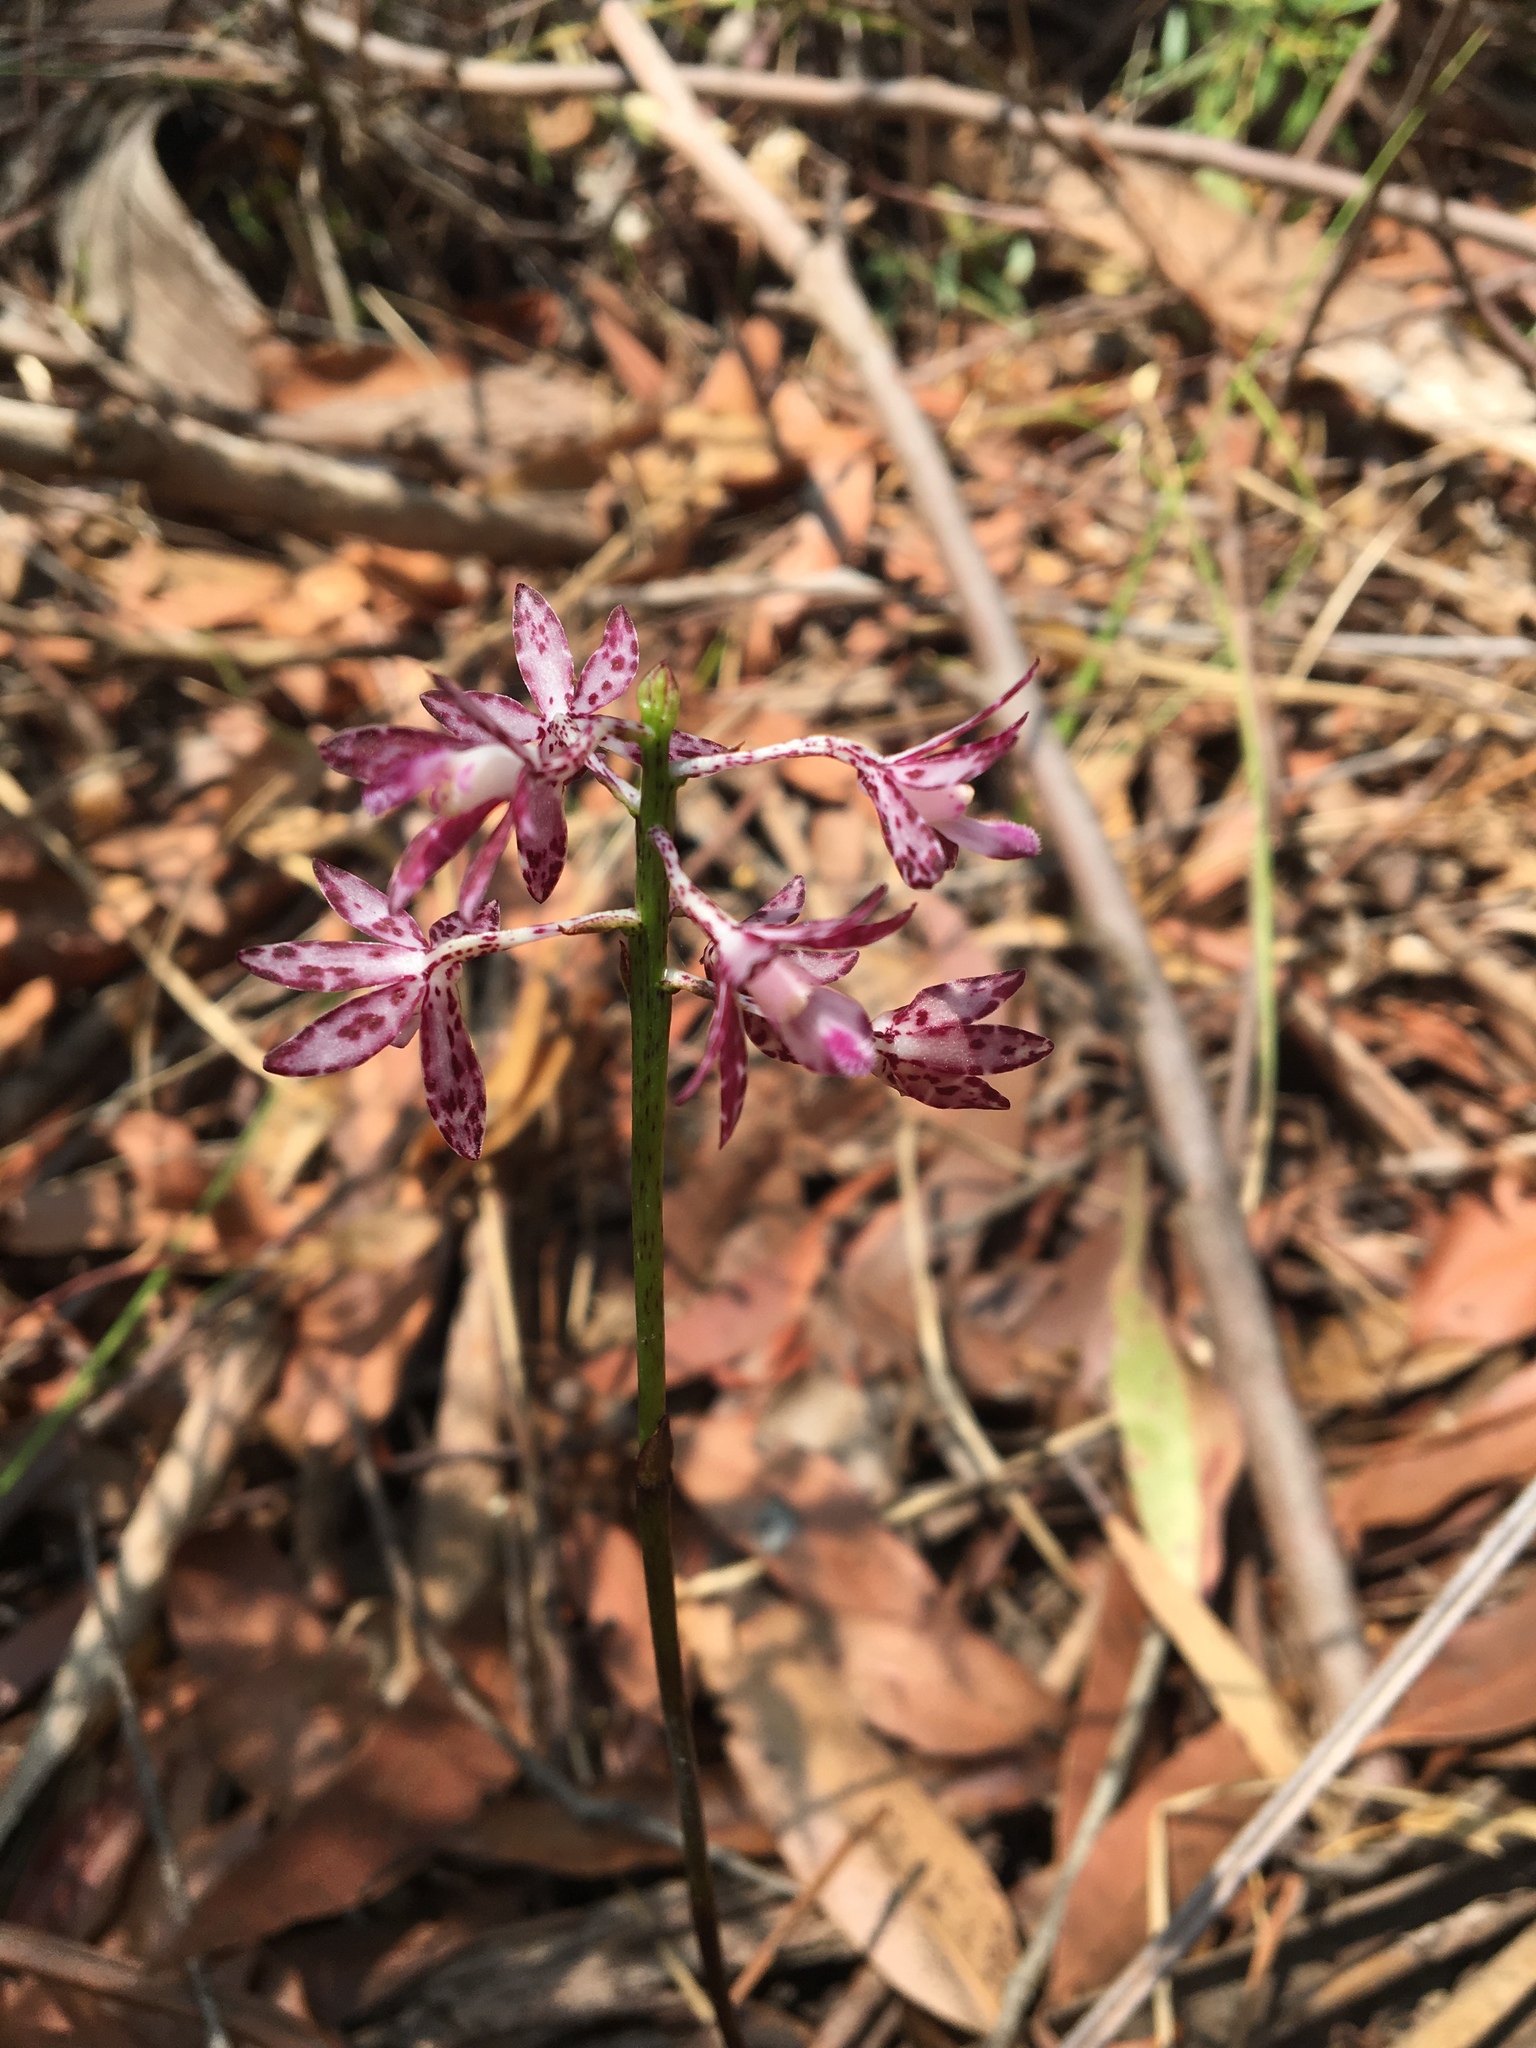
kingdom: Plantae
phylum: Tracheophyta
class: Liliopsida
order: Asparagales
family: Orchidaceae
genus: Dipodium
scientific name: Dipodium variegatum
